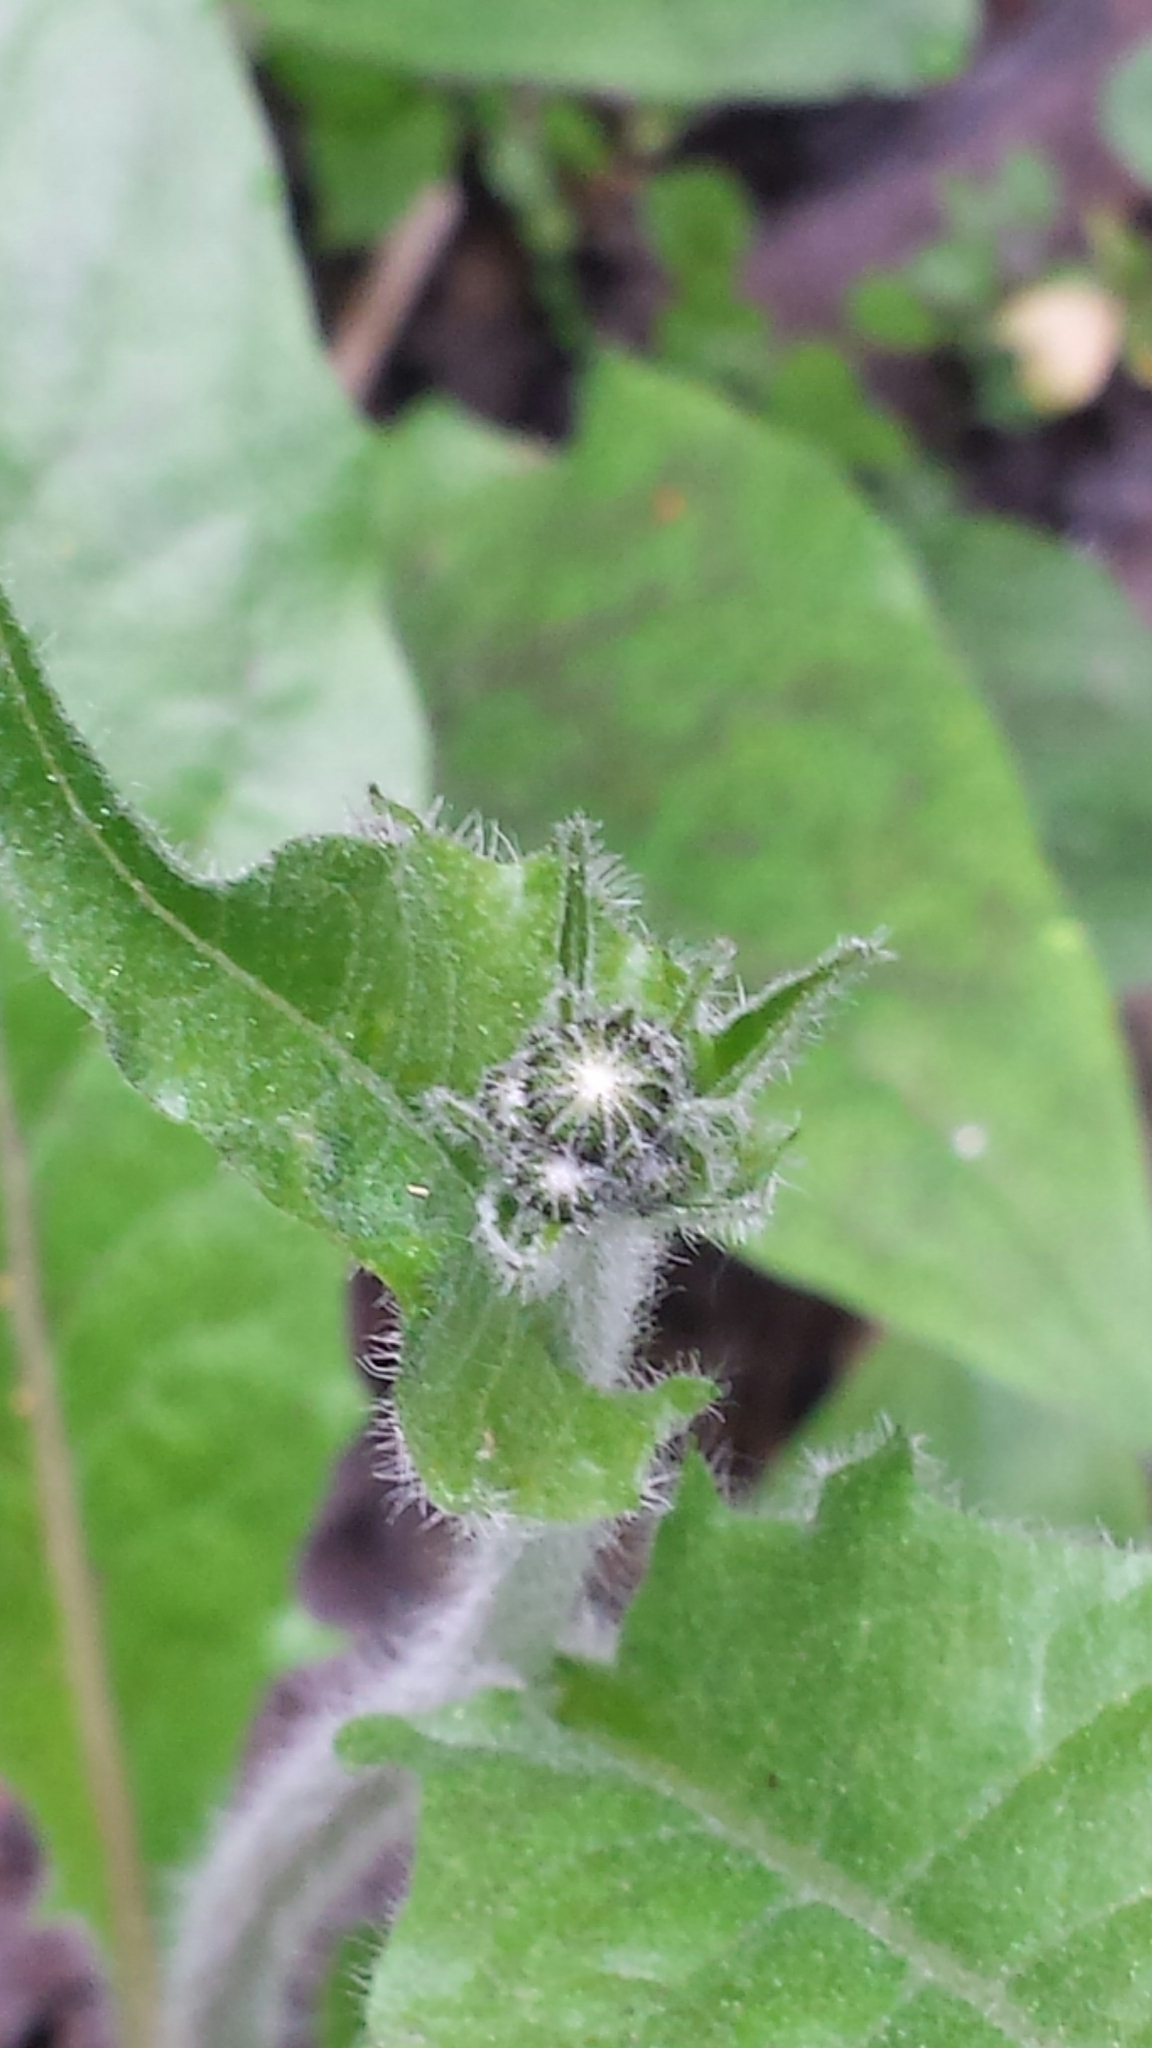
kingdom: Plantae
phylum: Tracheophyta
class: Magnoliopsida
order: Asterales
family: Asteraceae
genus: Hieracium
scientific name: Hieracium maculatum
